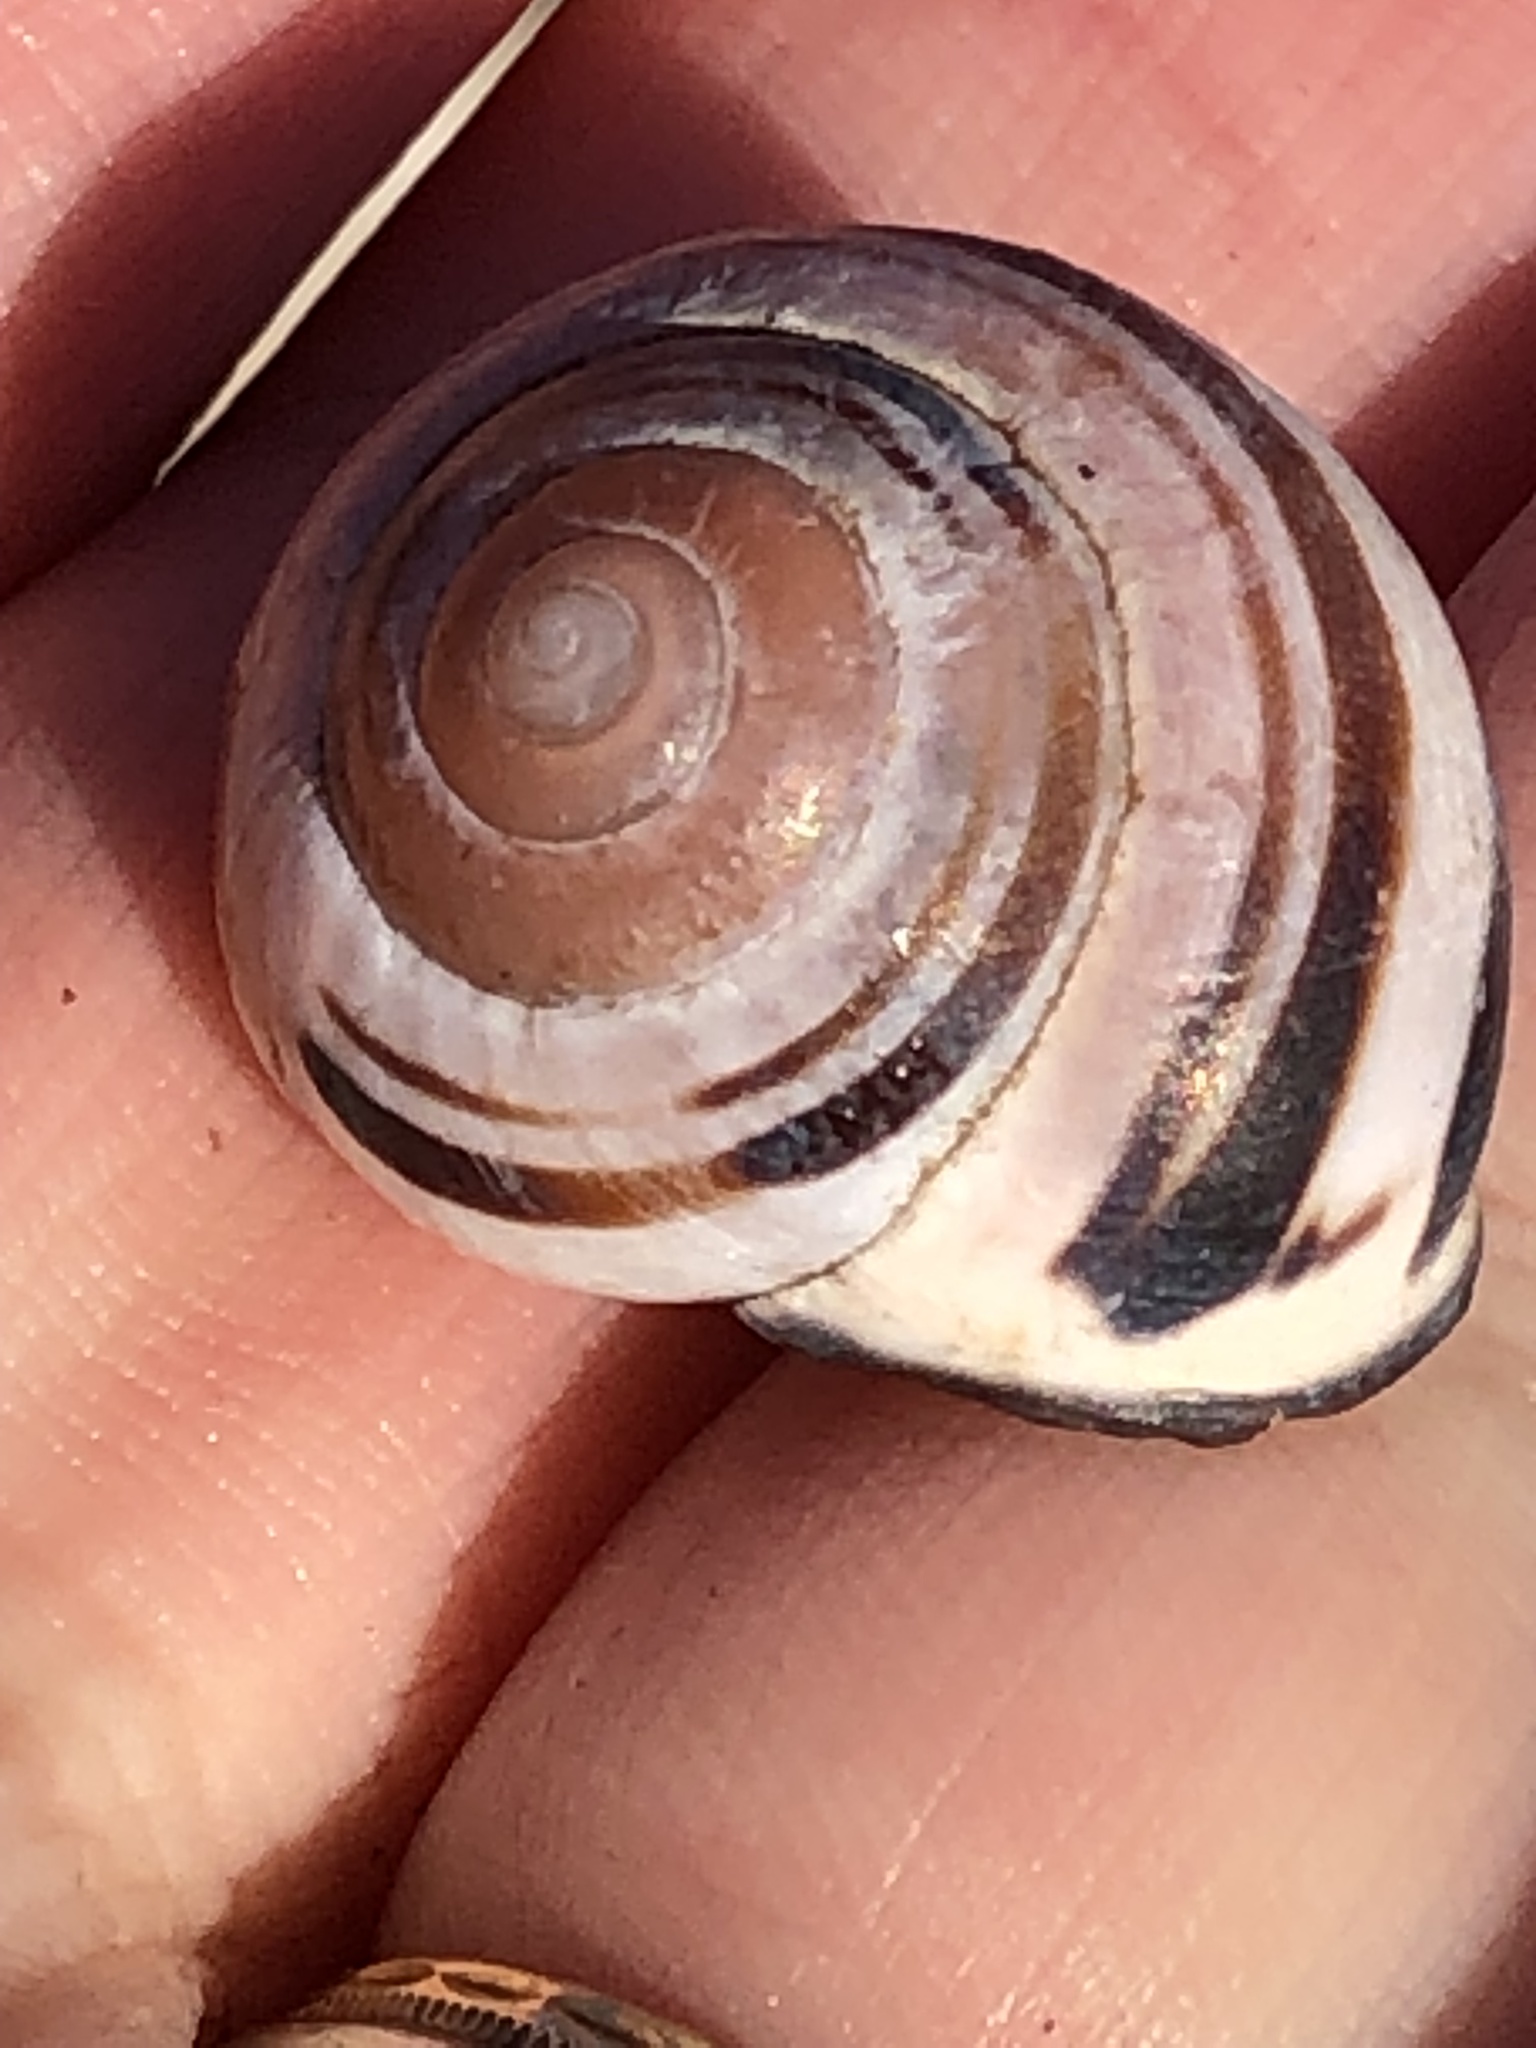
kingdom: Animalia
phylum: Mollusca
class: Gastropoda
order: Stylommatophora
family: Helicidae
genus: Cepaea
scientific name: Cepaea nemoralis
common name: Grovesnail
